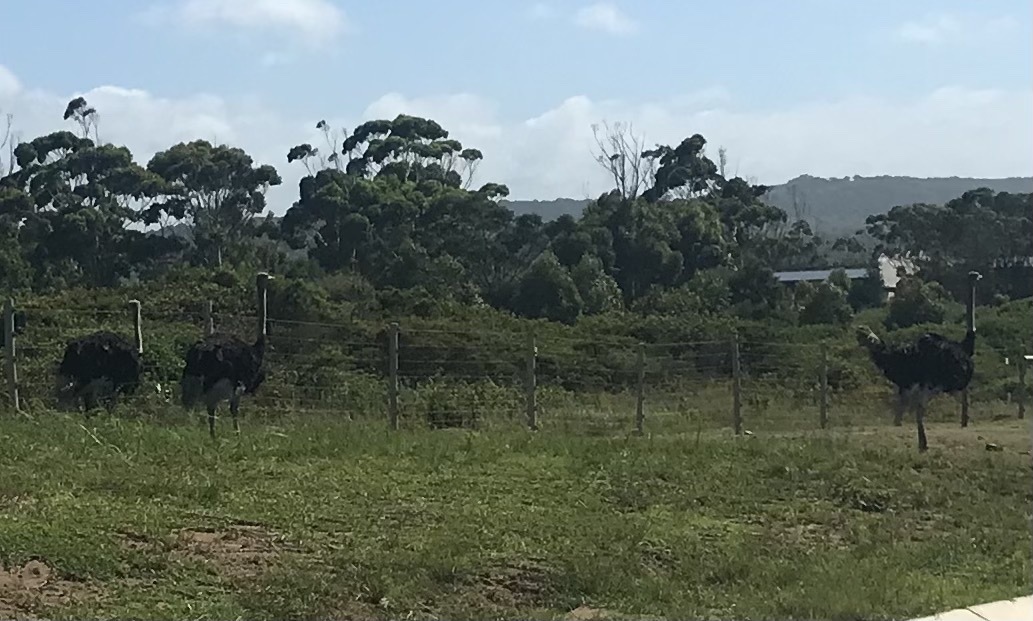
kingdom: Animalia
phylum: Chordata
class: Aves
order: Struthioniformes
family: Struthionidae
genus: Struthio
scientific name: Struthio camelus
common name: Common ostrich
